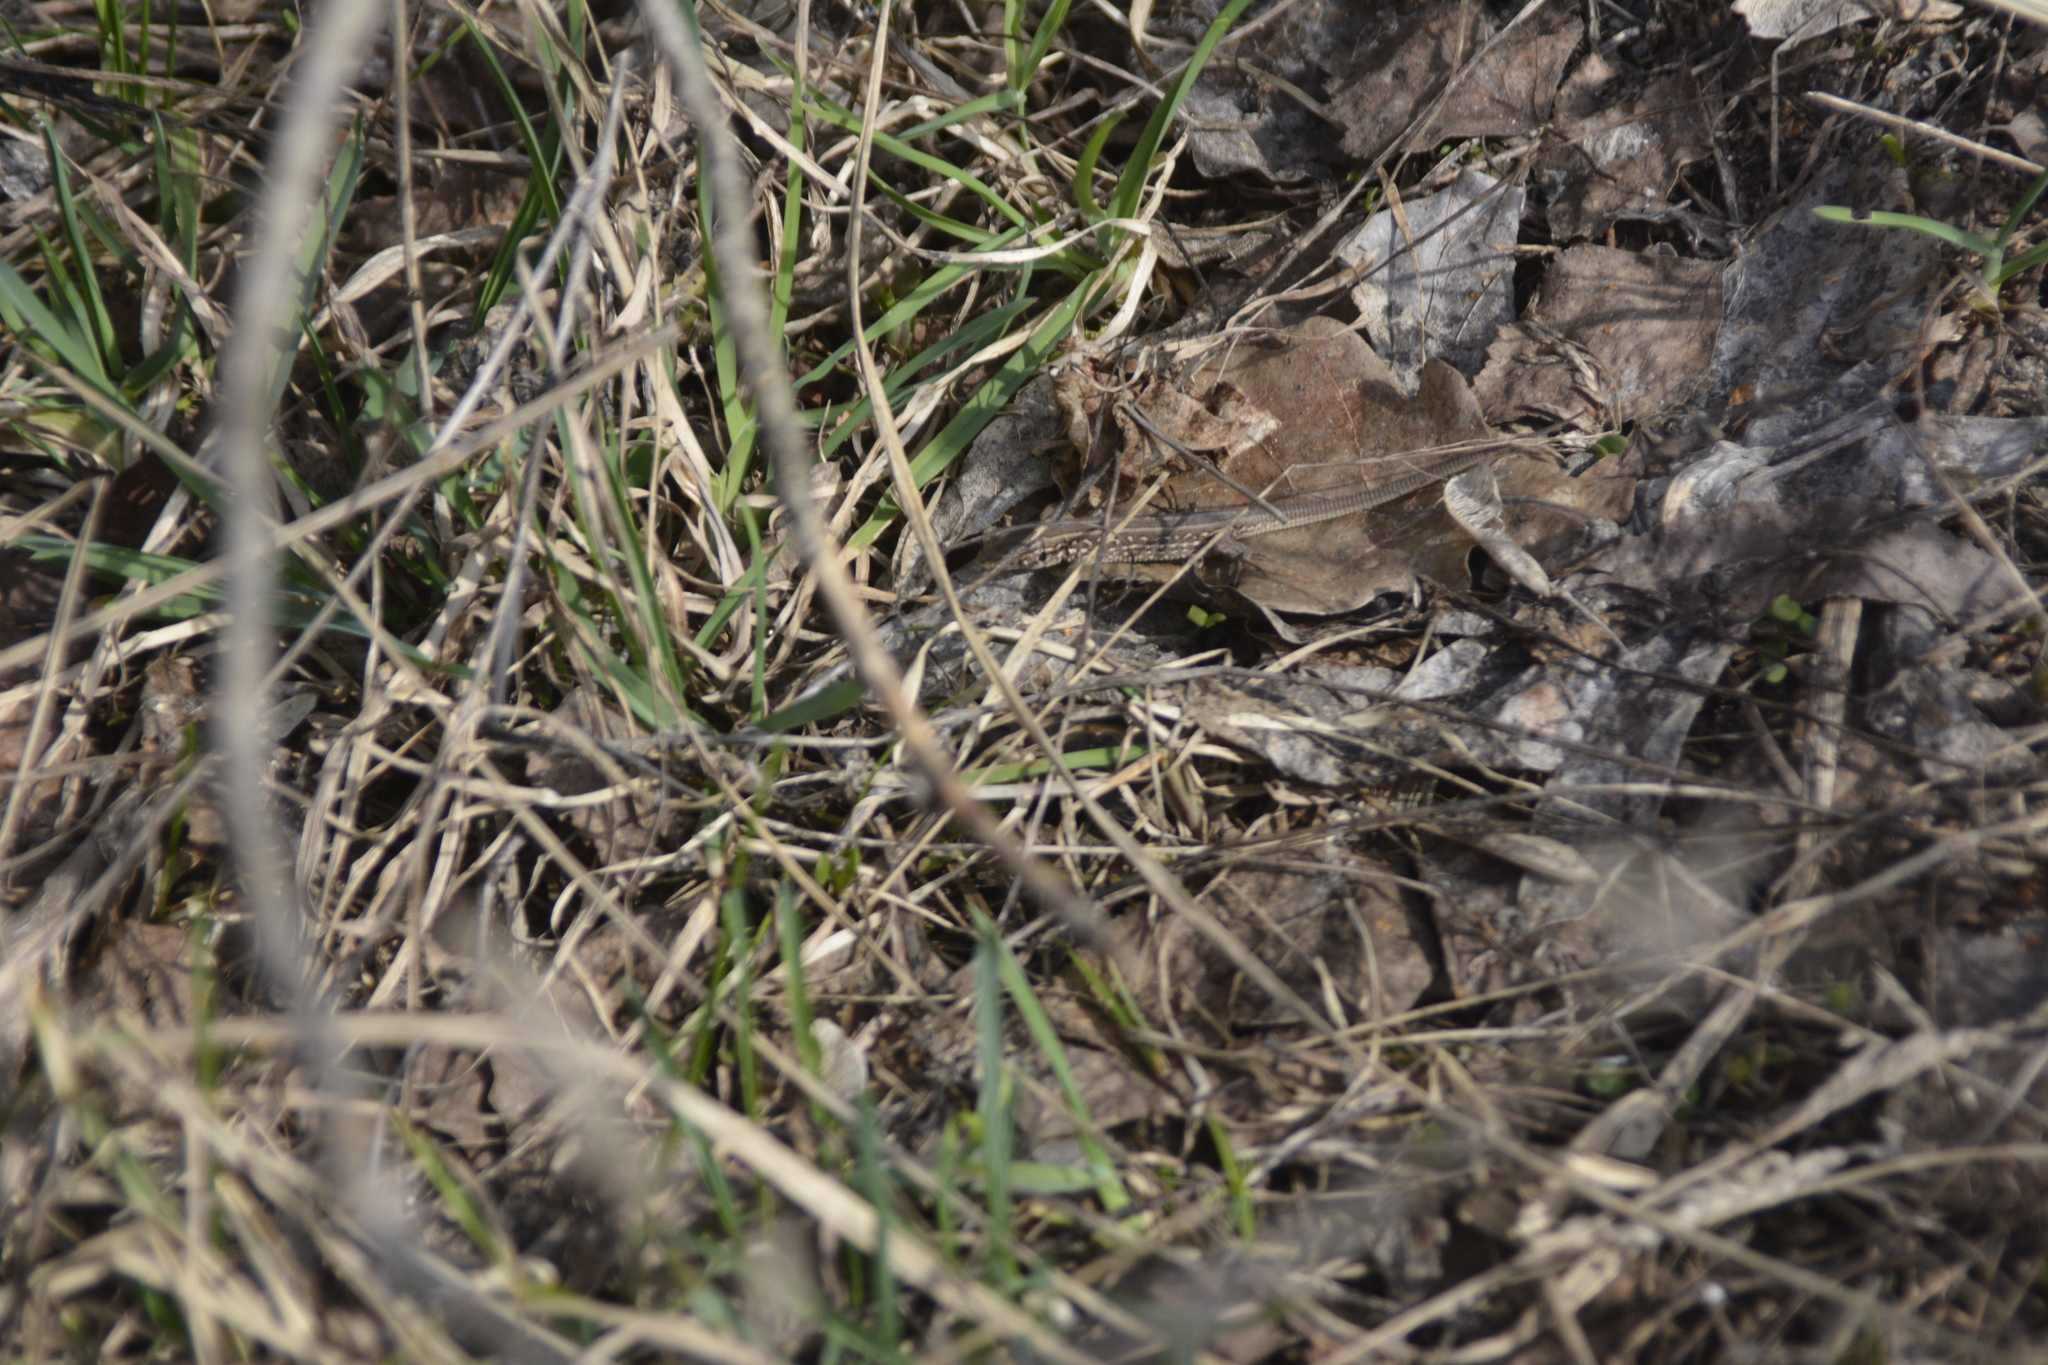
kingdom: Animalia
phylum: Chordata
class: Squamata
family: Lacertidae
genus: Lacerta
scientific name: Lacerta agilis
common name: Sand lizard
